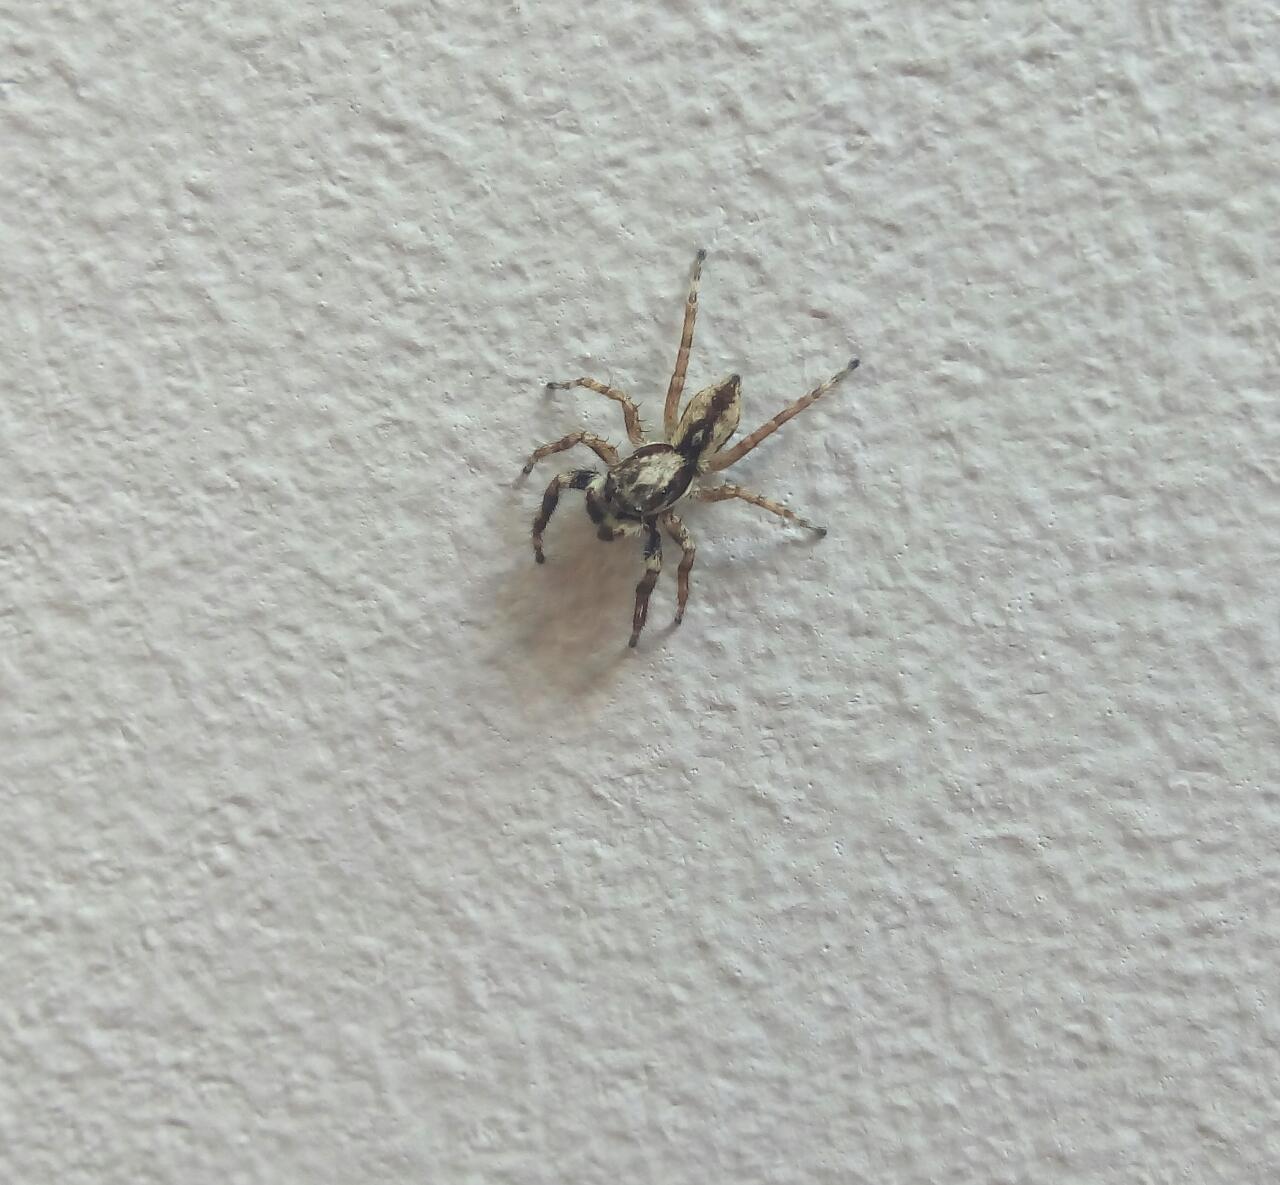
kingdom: Animalia
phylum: Arthropoda
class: Arachnida
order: Araneae
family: Salticidae
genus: Menemerus
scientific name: Menemerus bivittatus
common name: Gray wall jumper
